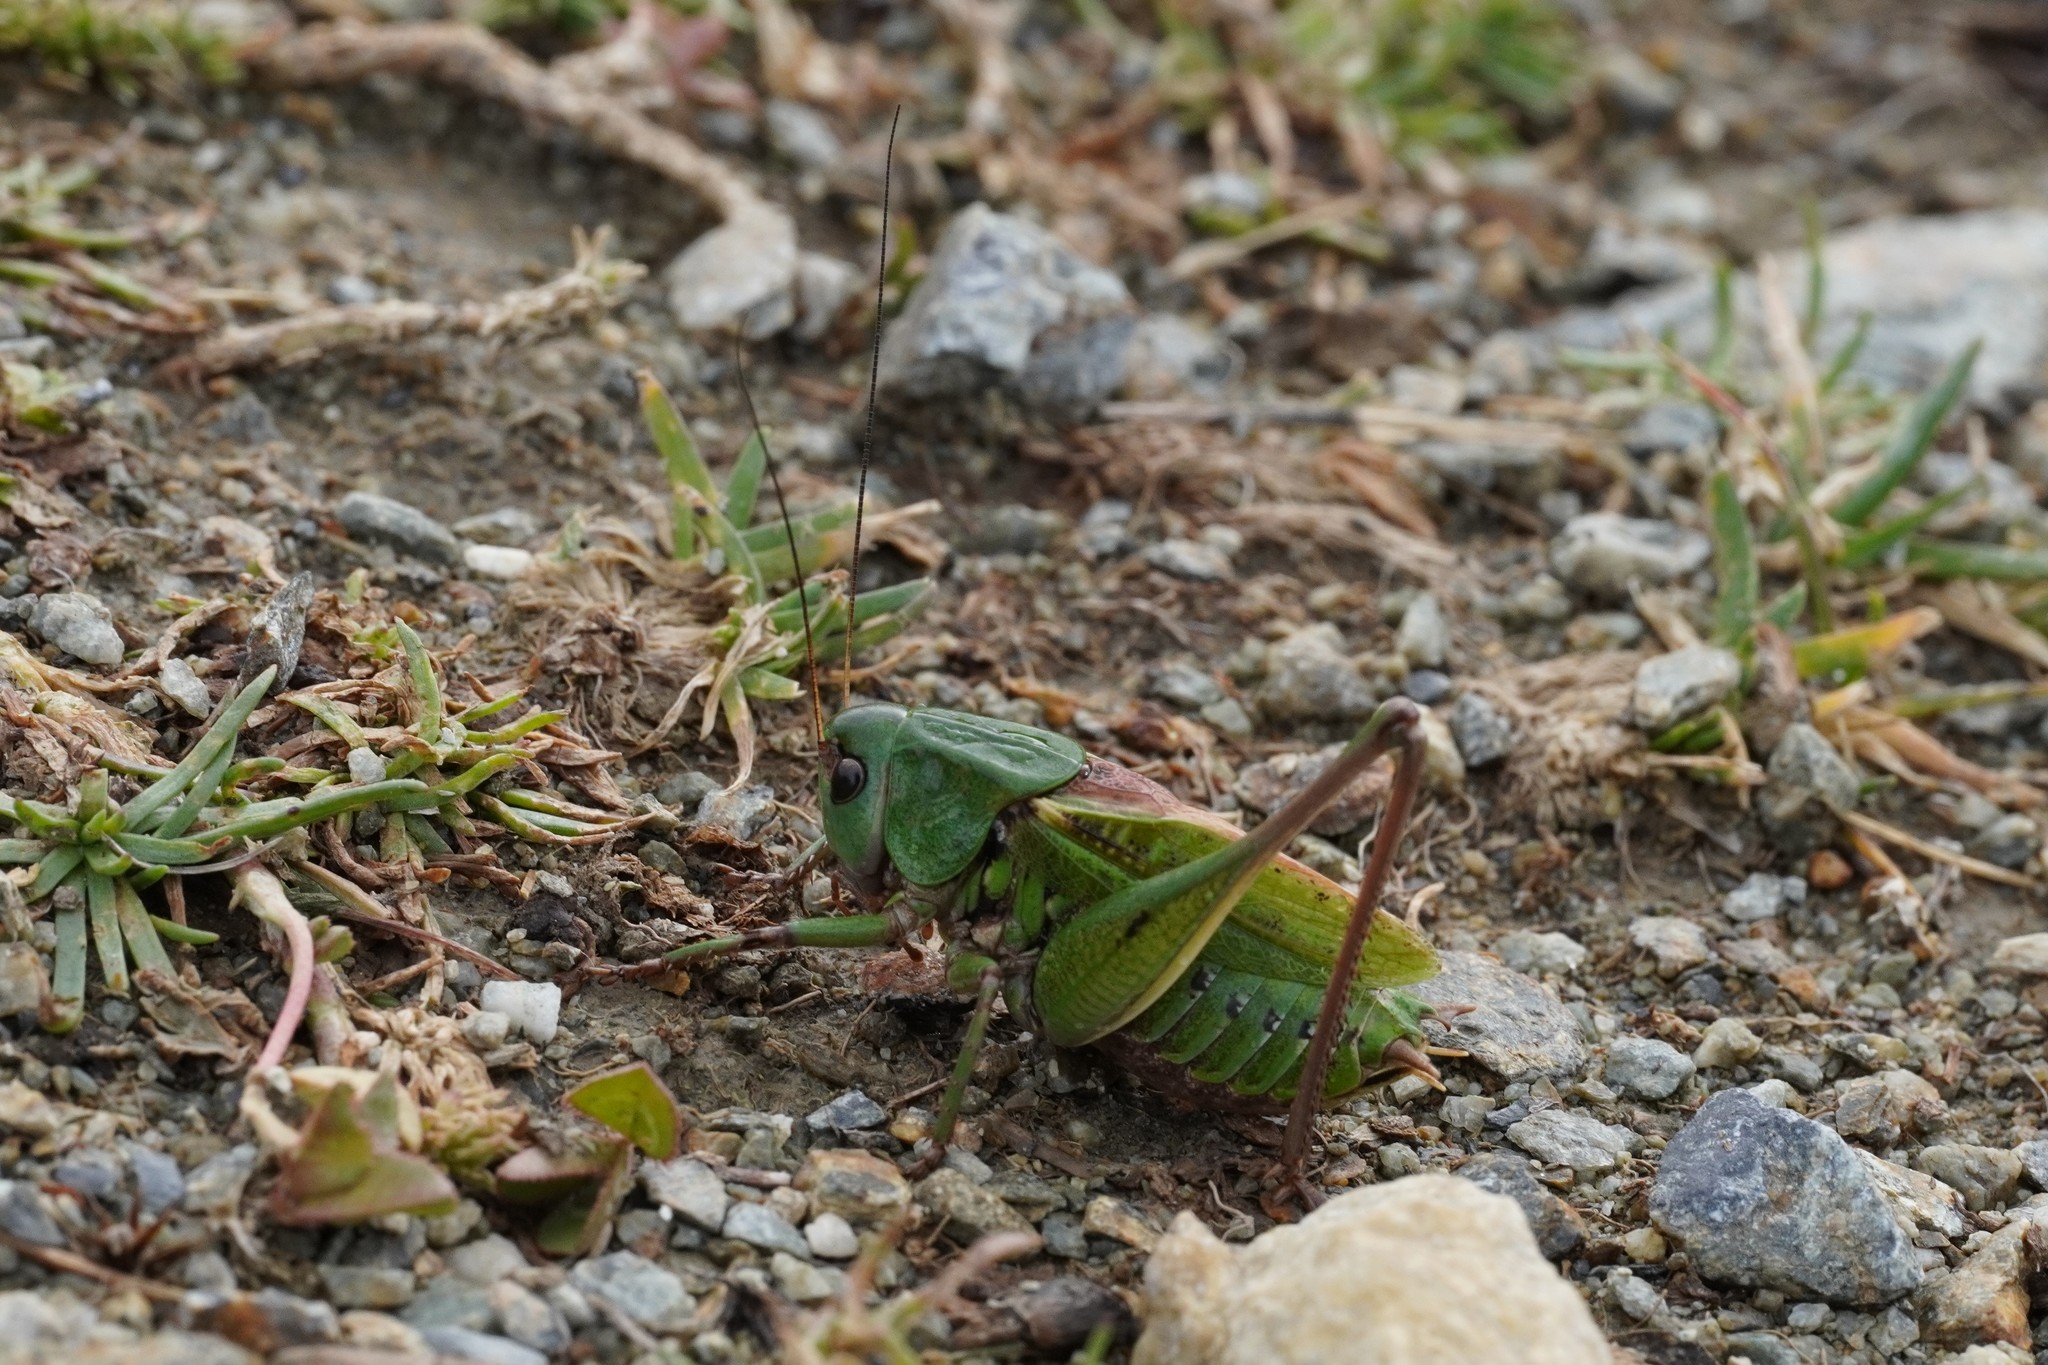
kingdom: Animalia
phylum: Arthropoda
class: Insecta
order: Orthoptera
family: Tettigoniidae
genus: Decticus
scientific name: Decticus verrucivorus
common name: Wart-biter
